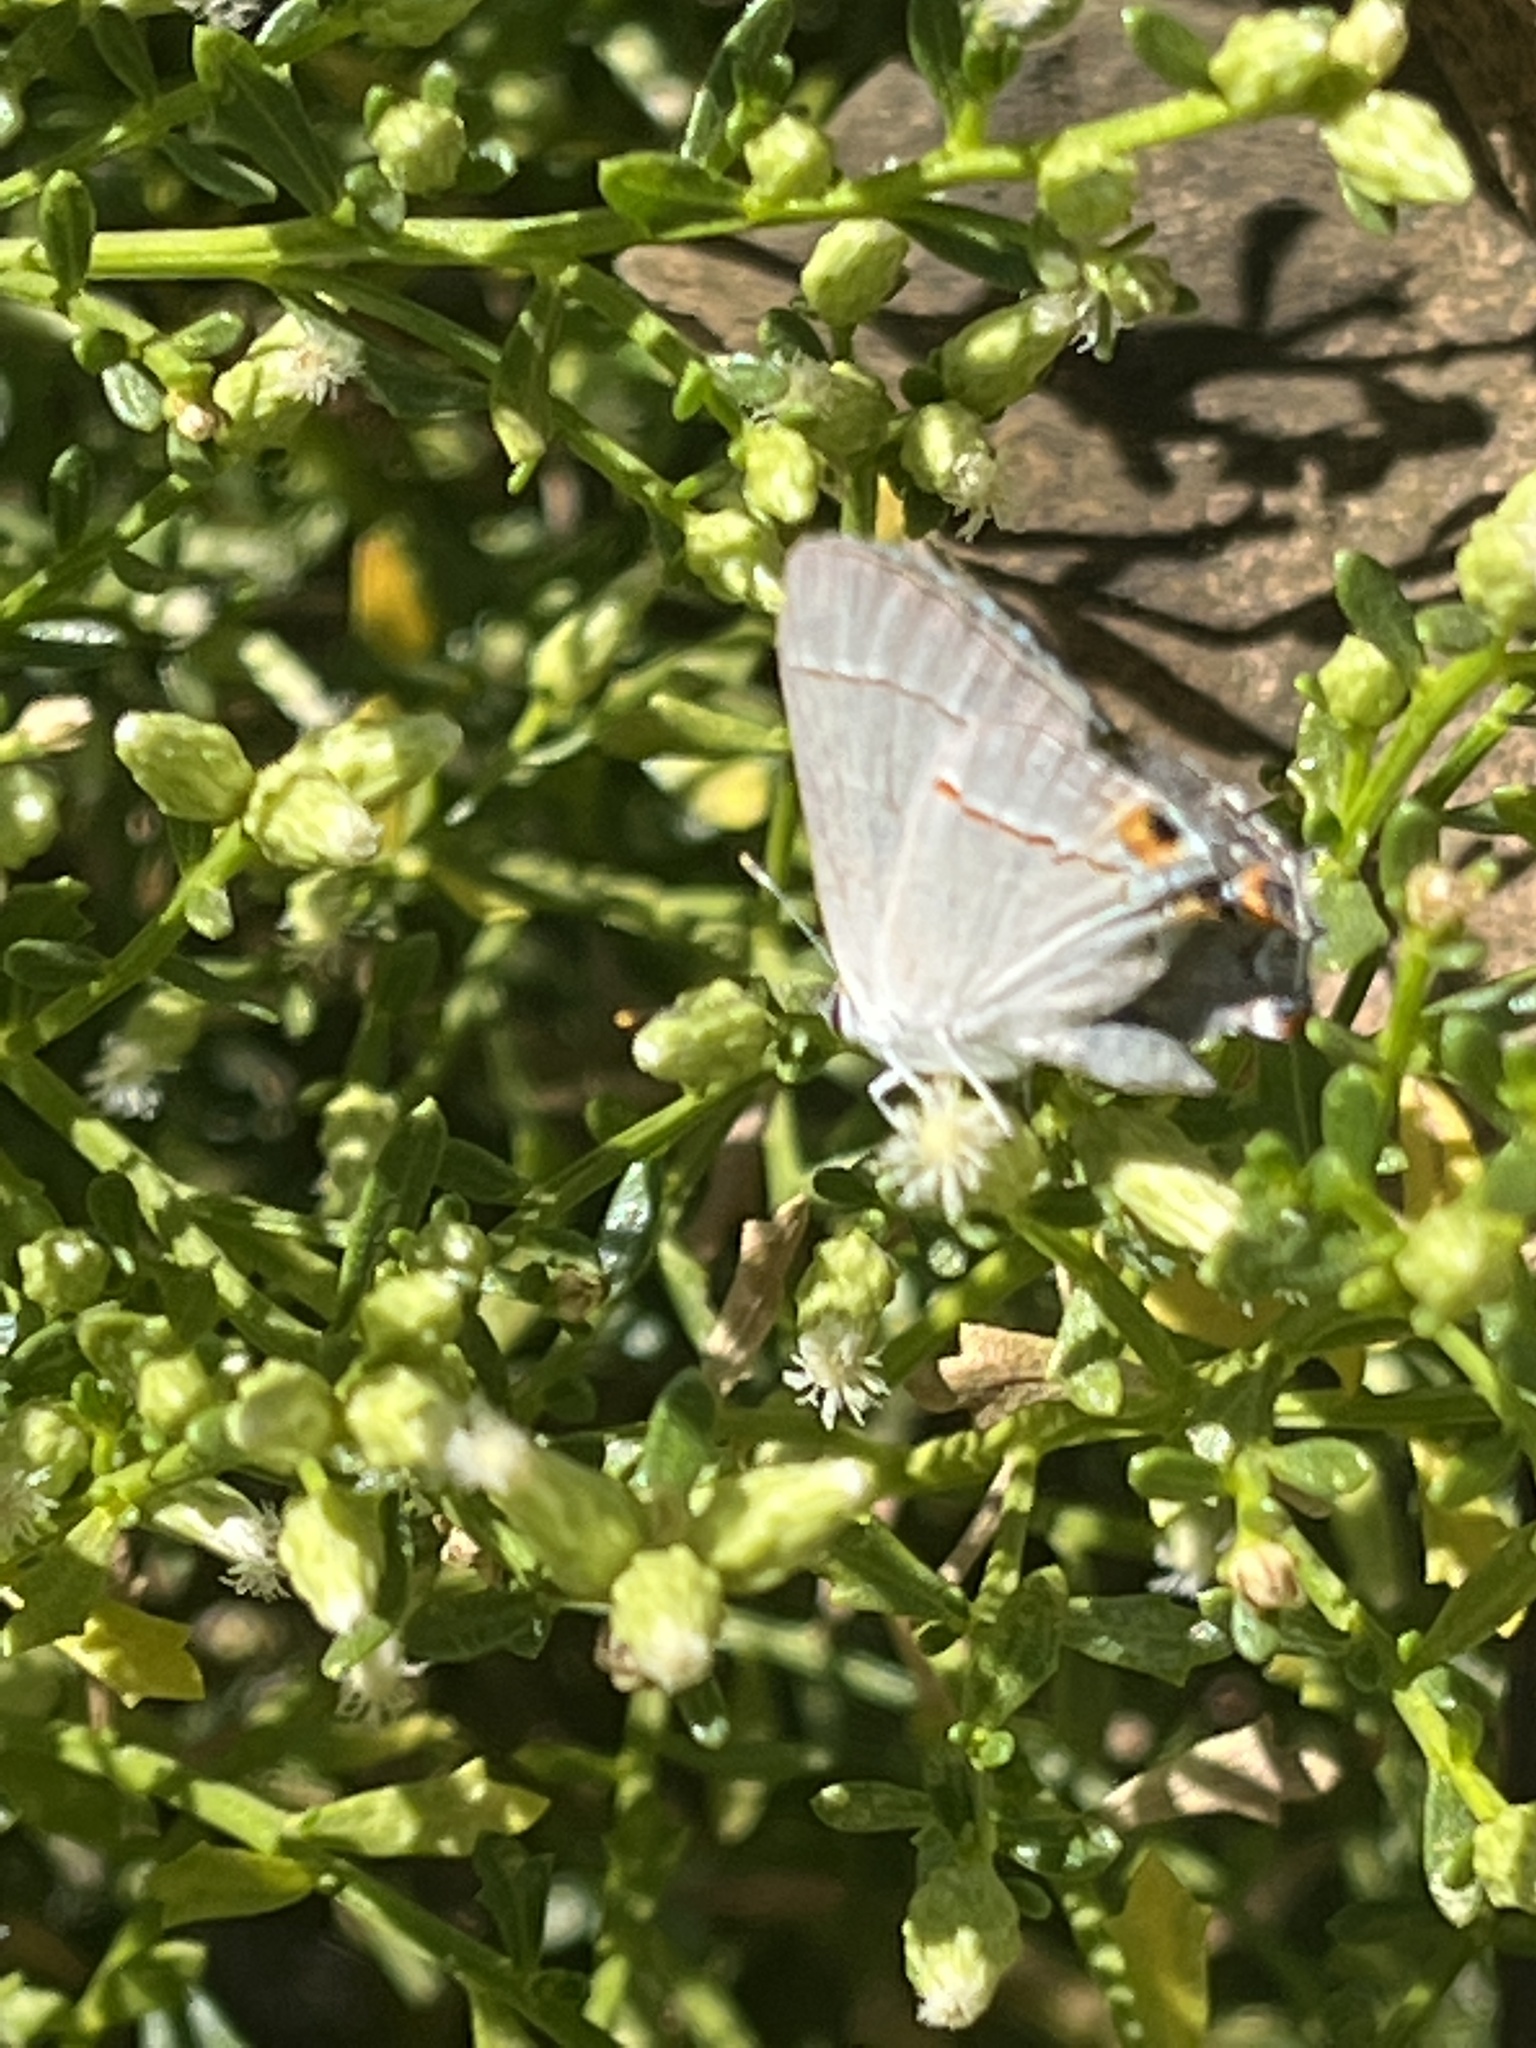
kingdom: Animalia
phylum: Arthropoda
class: Insecta
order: Lepidoptera
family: Lycaenidae
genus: Strymon
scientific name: Strymon melinus
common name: Gray hairstreak
